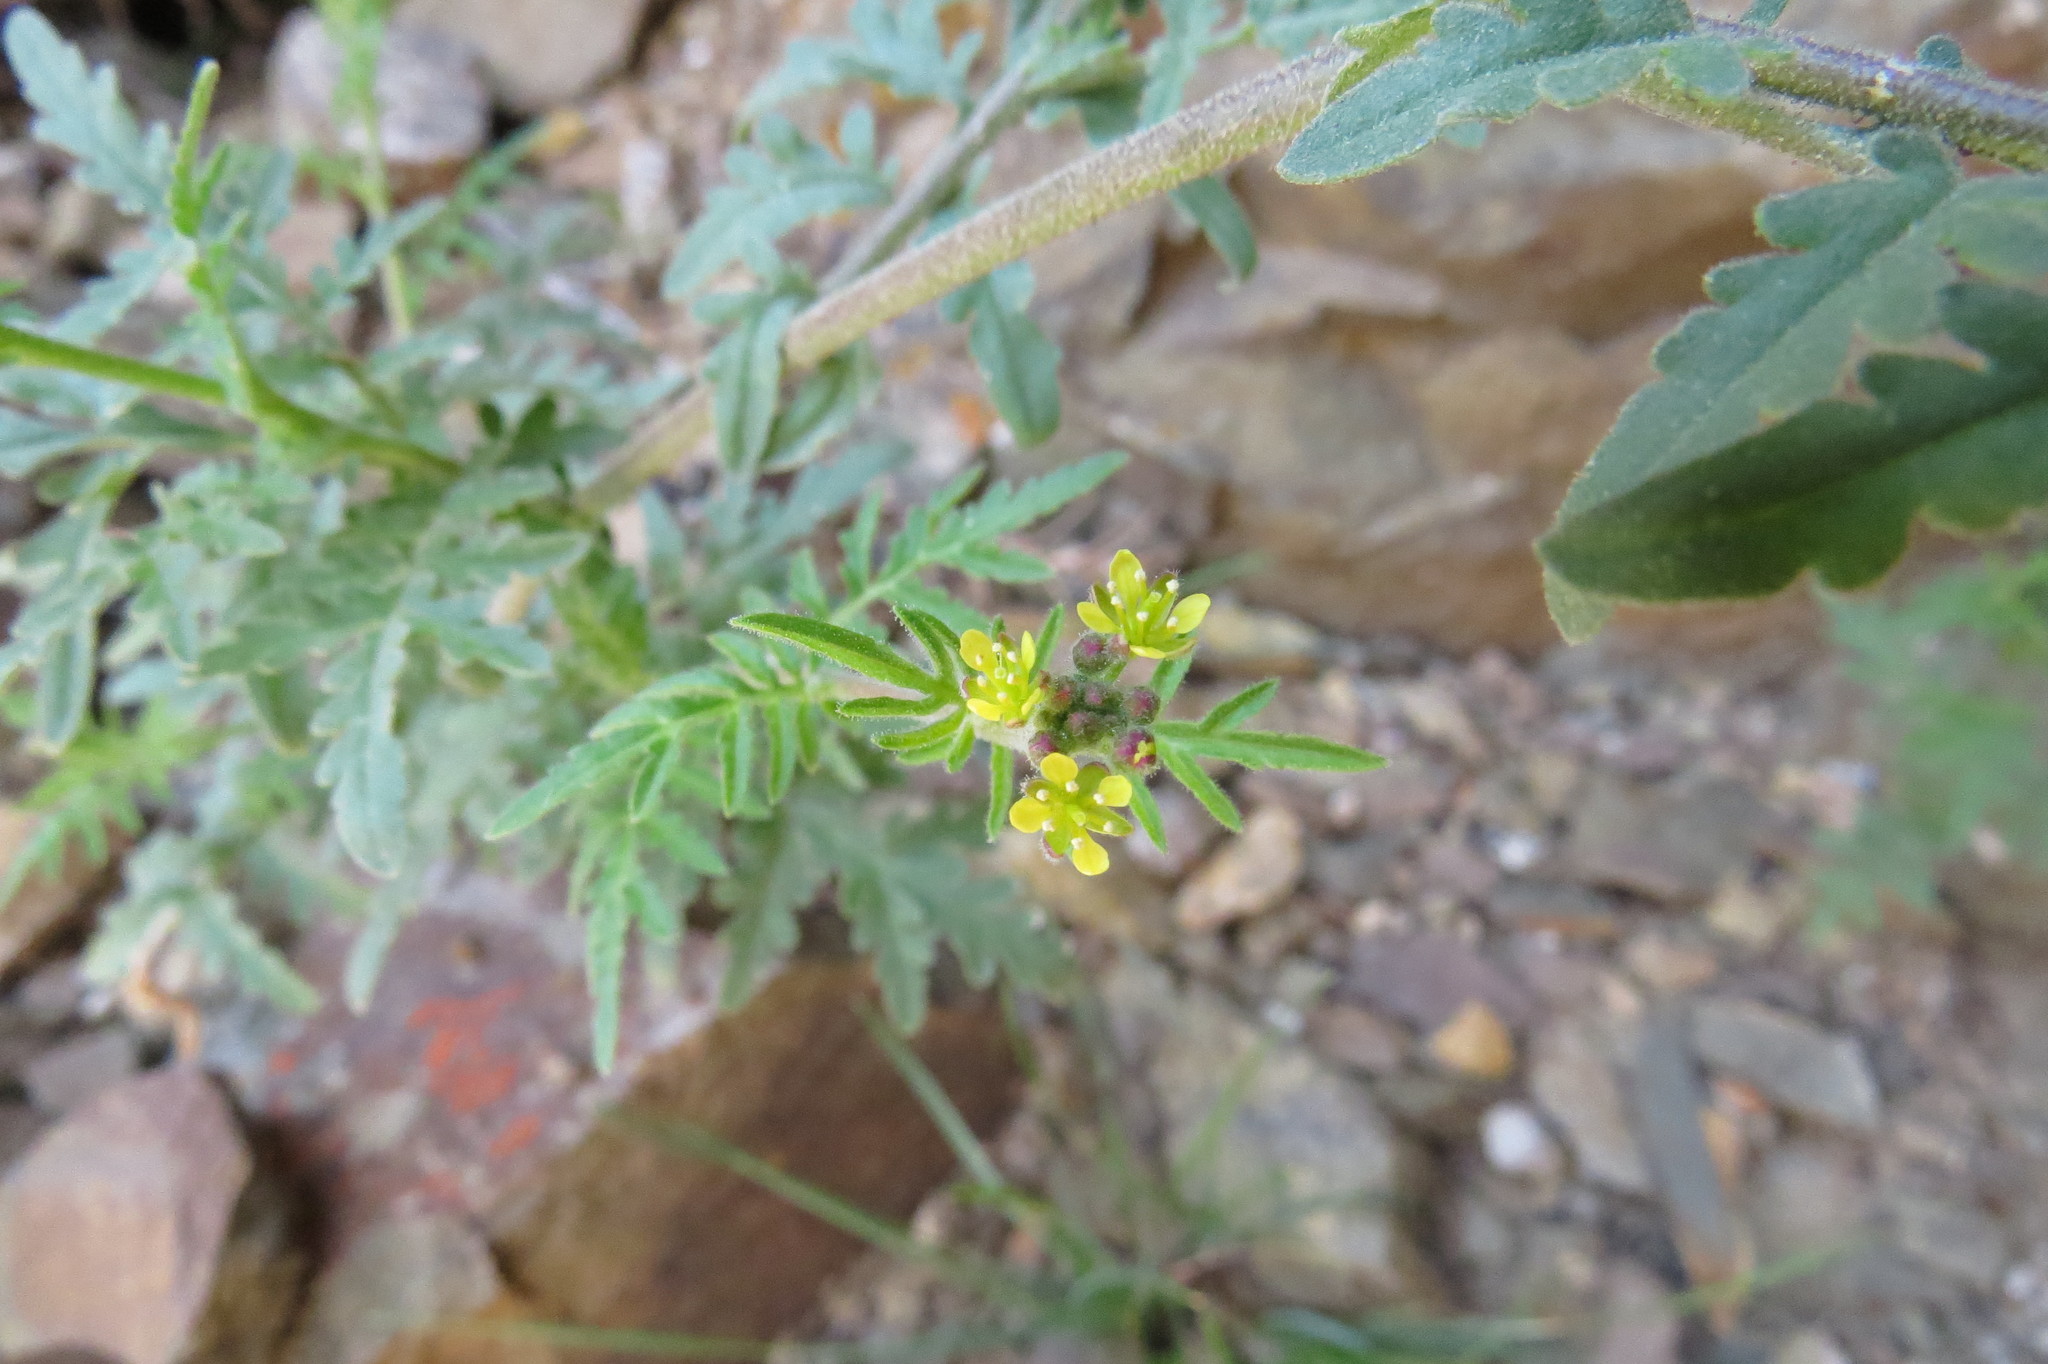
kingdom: Plantae
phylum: Tracheophyta
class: Magnoliopsida
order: Brassicales
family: Brassicaceae
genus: Descurainia
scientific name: Descurainia pimpinellifolia
